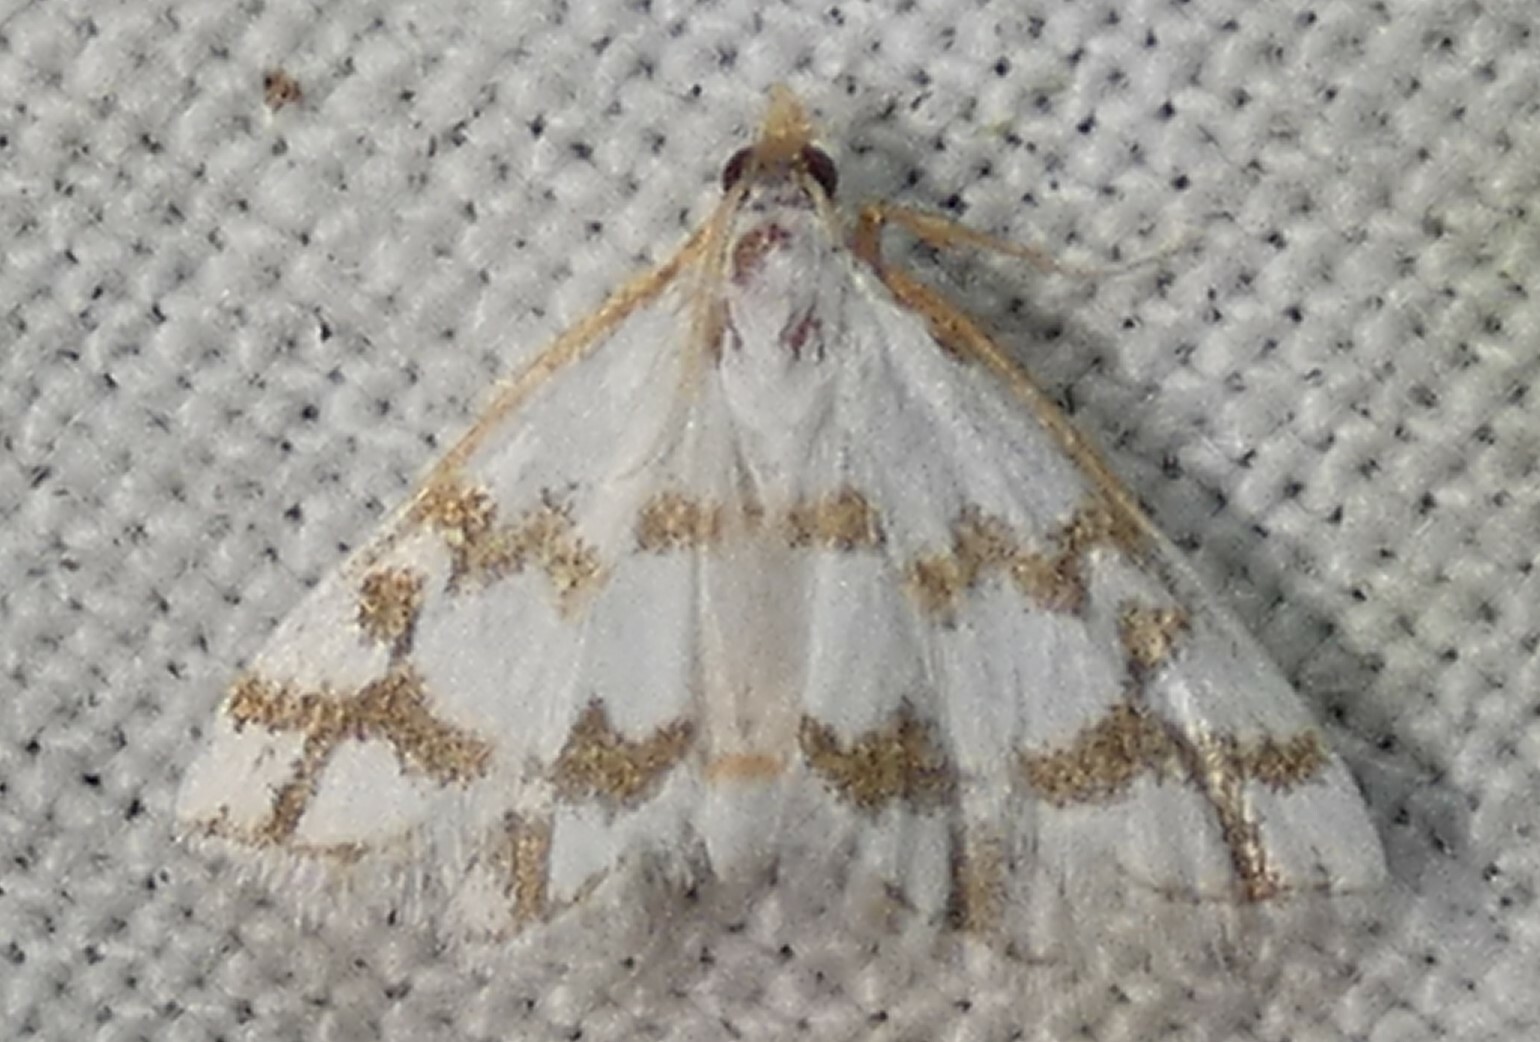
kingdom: Animalia
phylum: Arthropoda
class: Insecta
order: Lepidoptera
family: Crambidae
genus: Leptosteges
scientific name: Leptosteges
